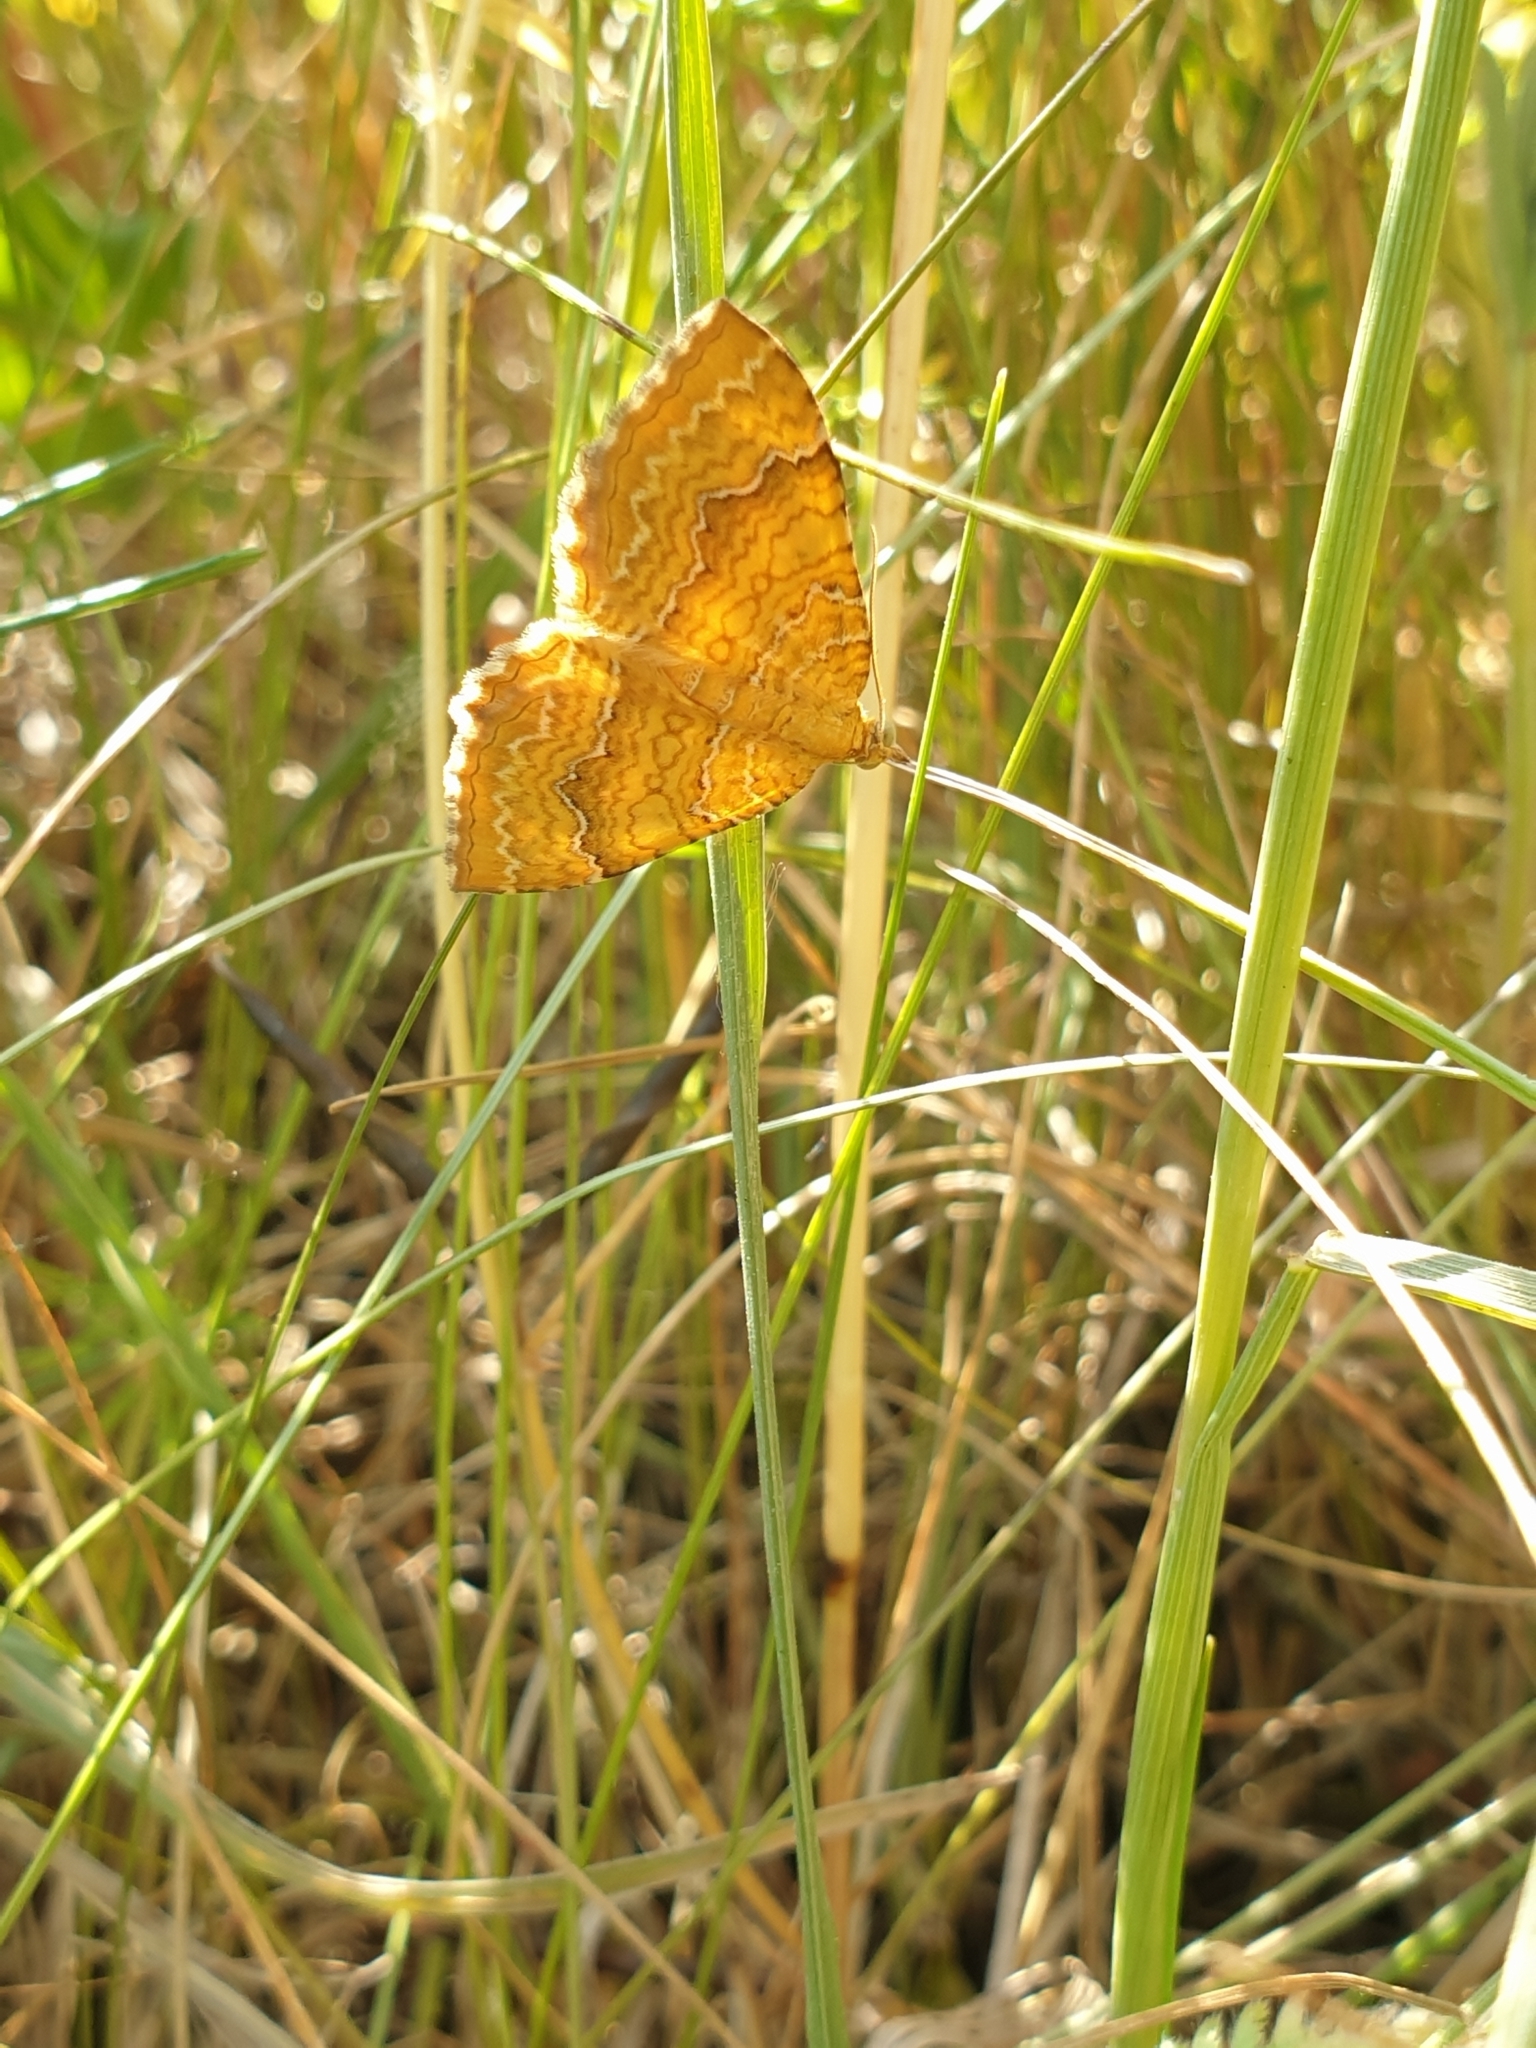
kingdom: Animalia
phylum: Arthropoda
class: Insecta
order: Lepidoptera
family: Geometridae
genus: Camptogramma
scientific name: Camptogramma bilineata
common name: Yellow shell
